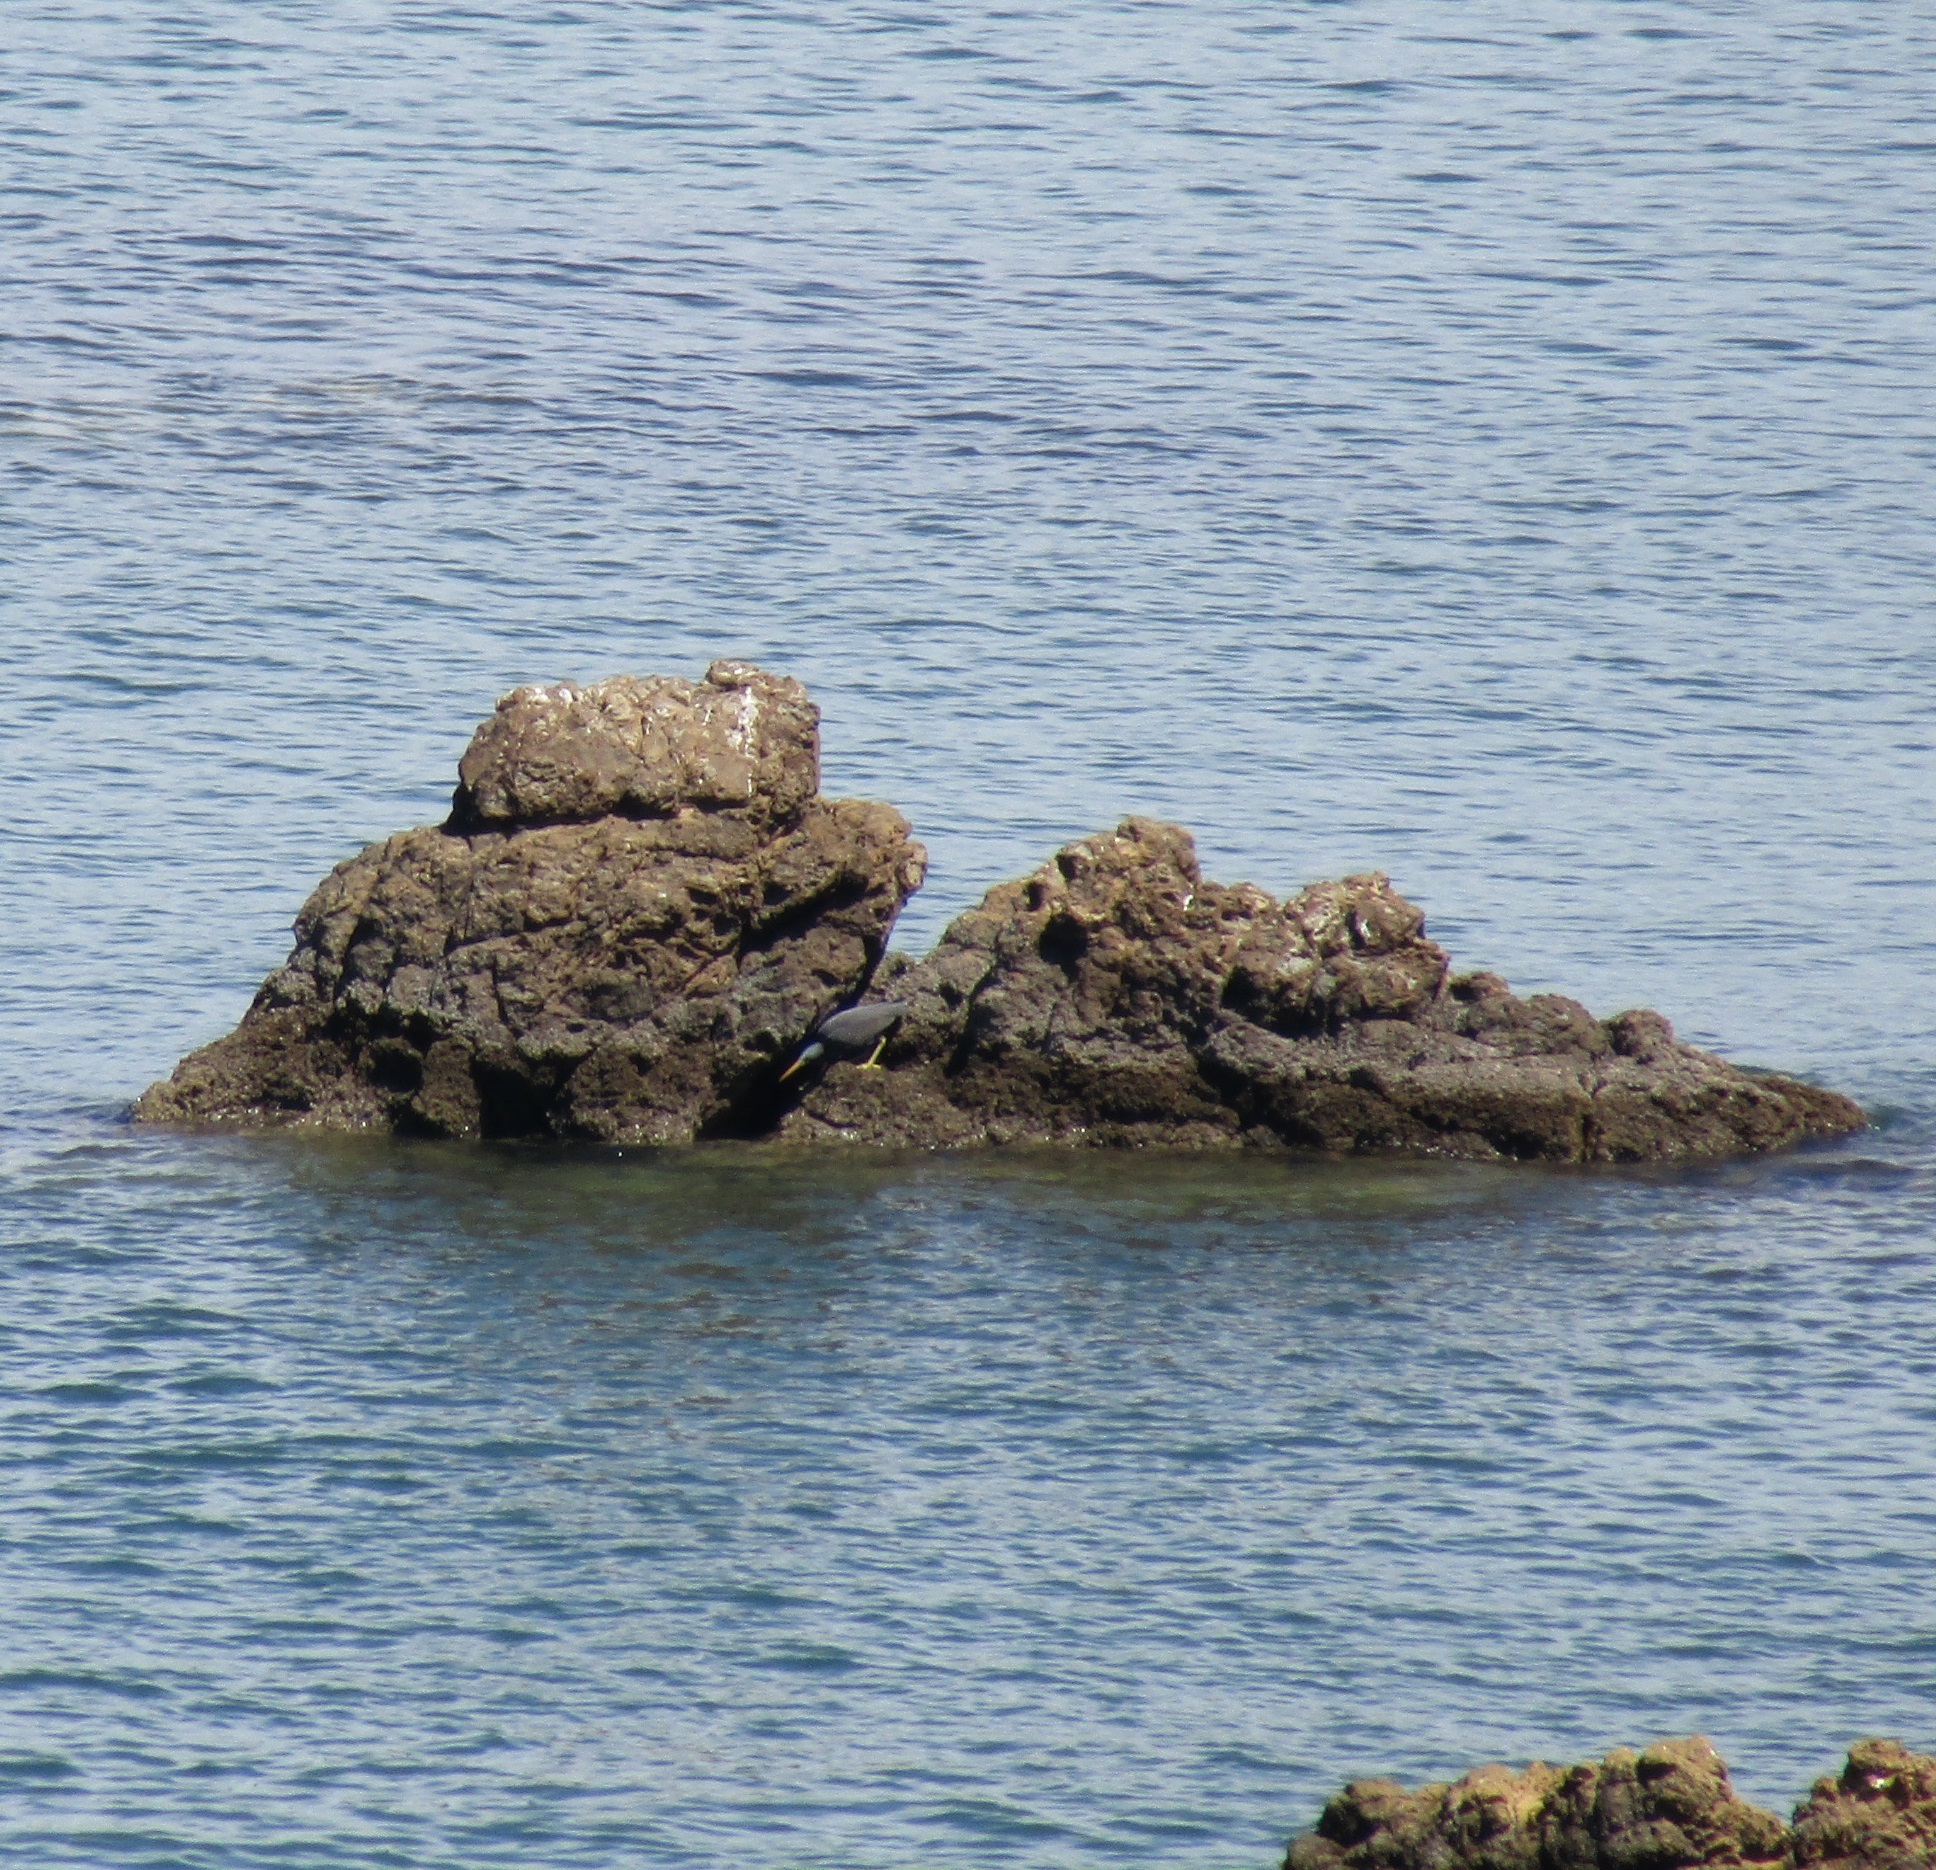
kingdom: Animalia
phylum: Chordata
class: Aves
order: Pelecaniformes
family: Ardeidae
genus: Egretta
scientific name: Egretta sacra
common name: Pacific reef heron
